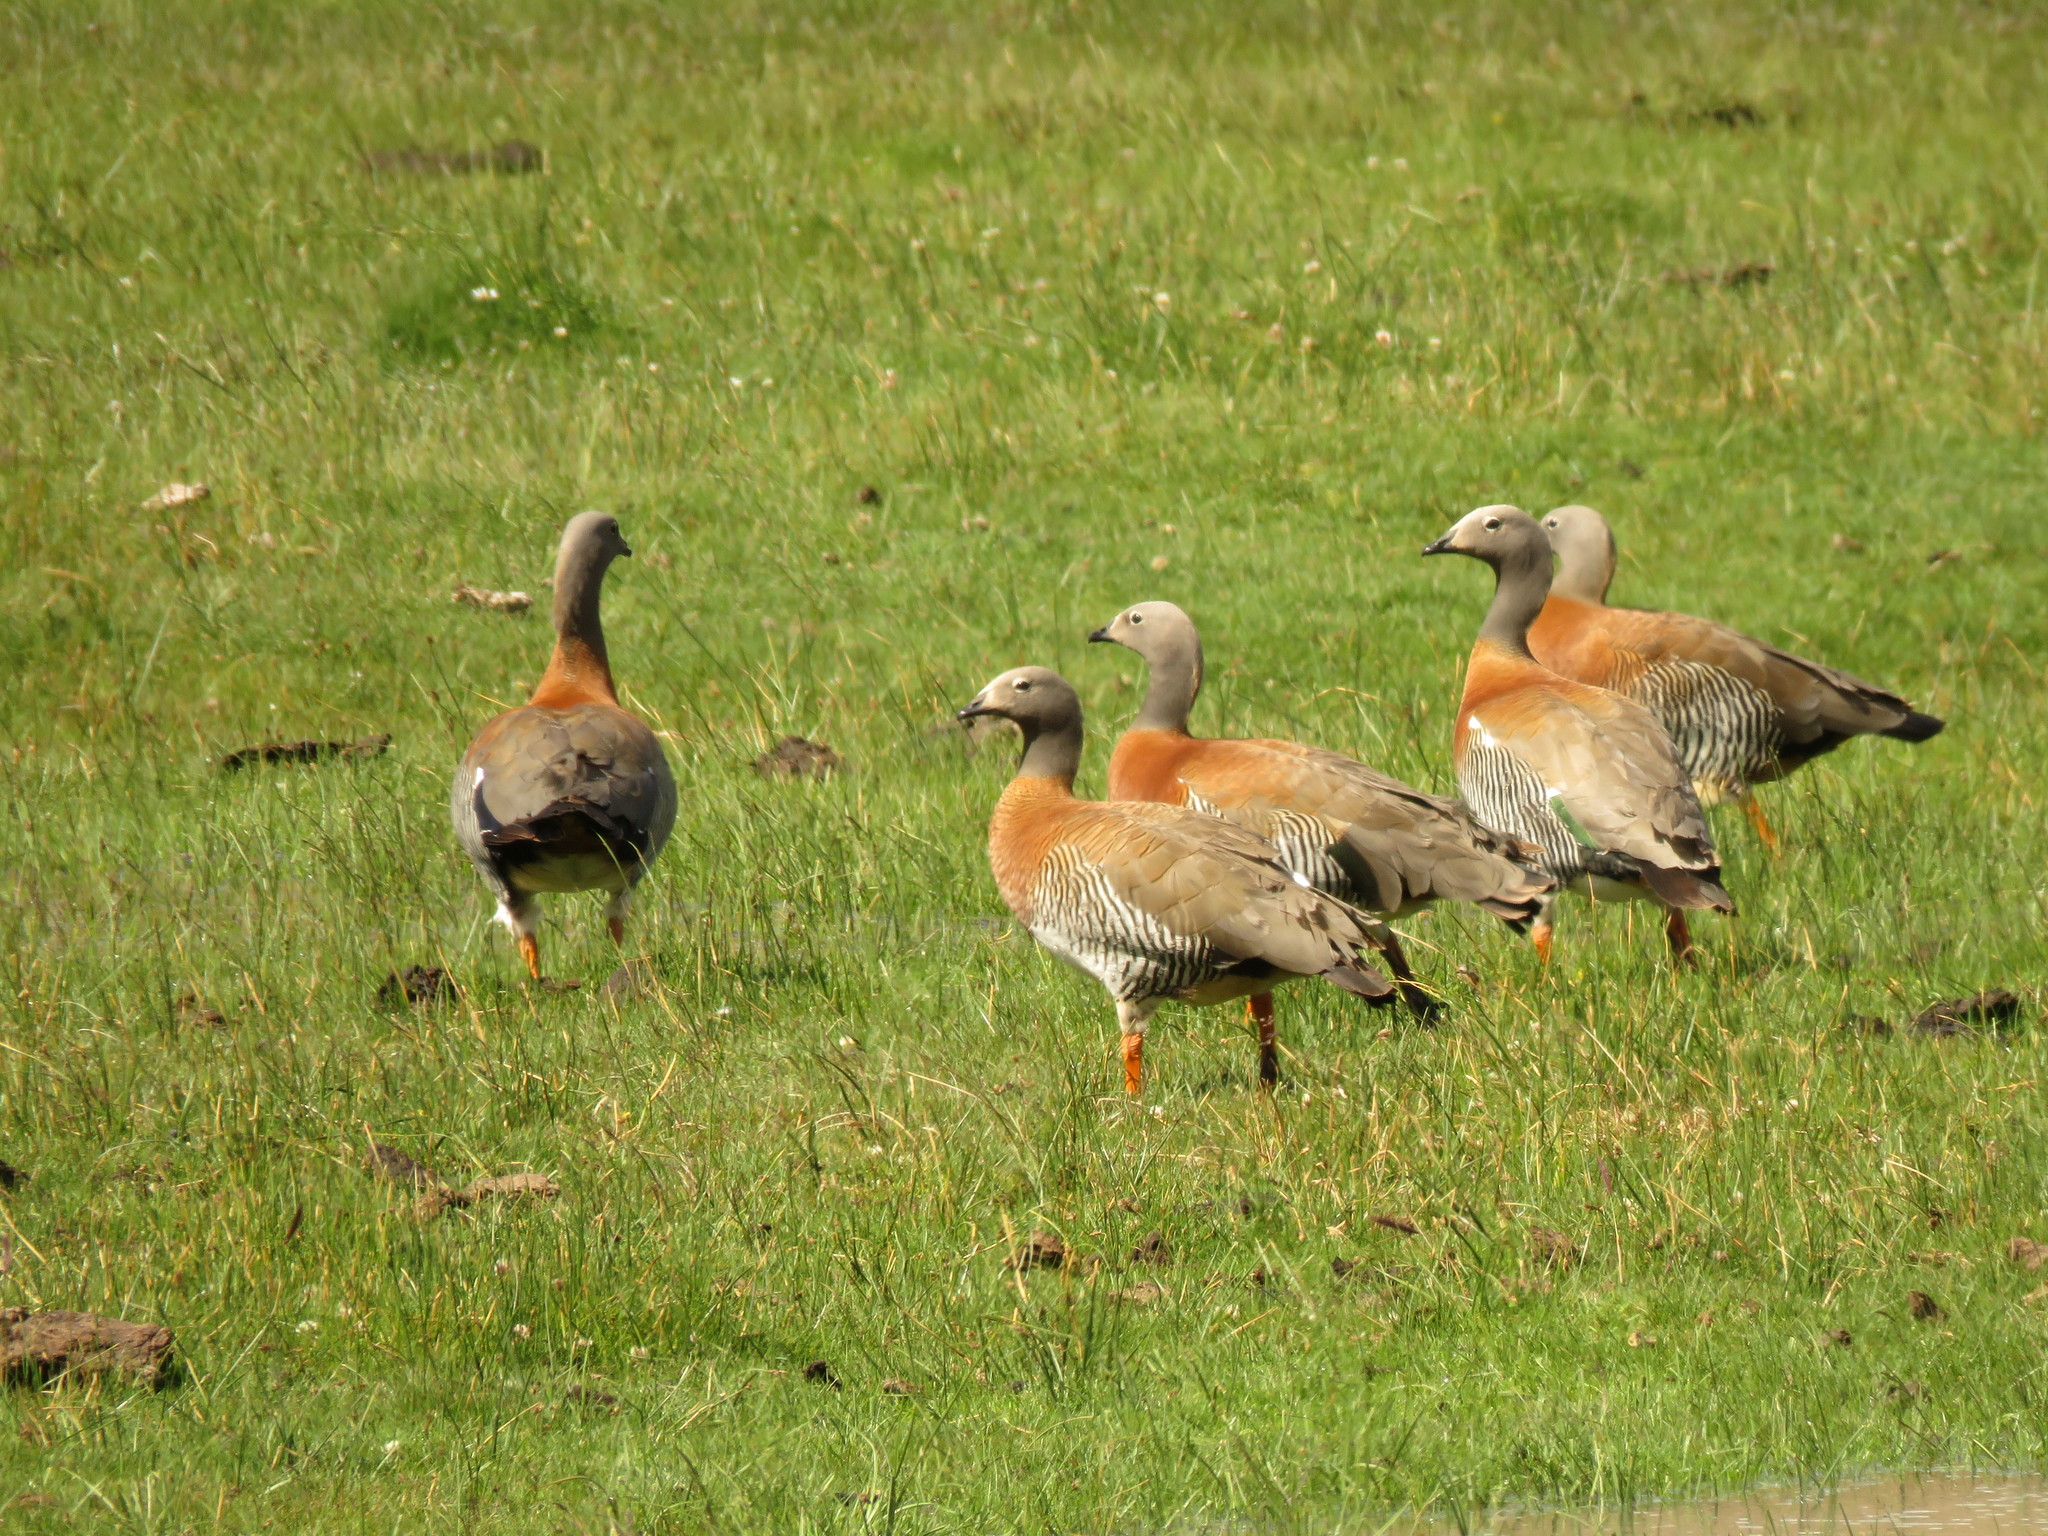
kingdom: Animalia
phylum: Chordata
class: Aves
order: Anseriformes
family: Anatidae
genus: Chloephaga
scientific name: Chloephaga poliocephala
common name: Ashy-headed goose
